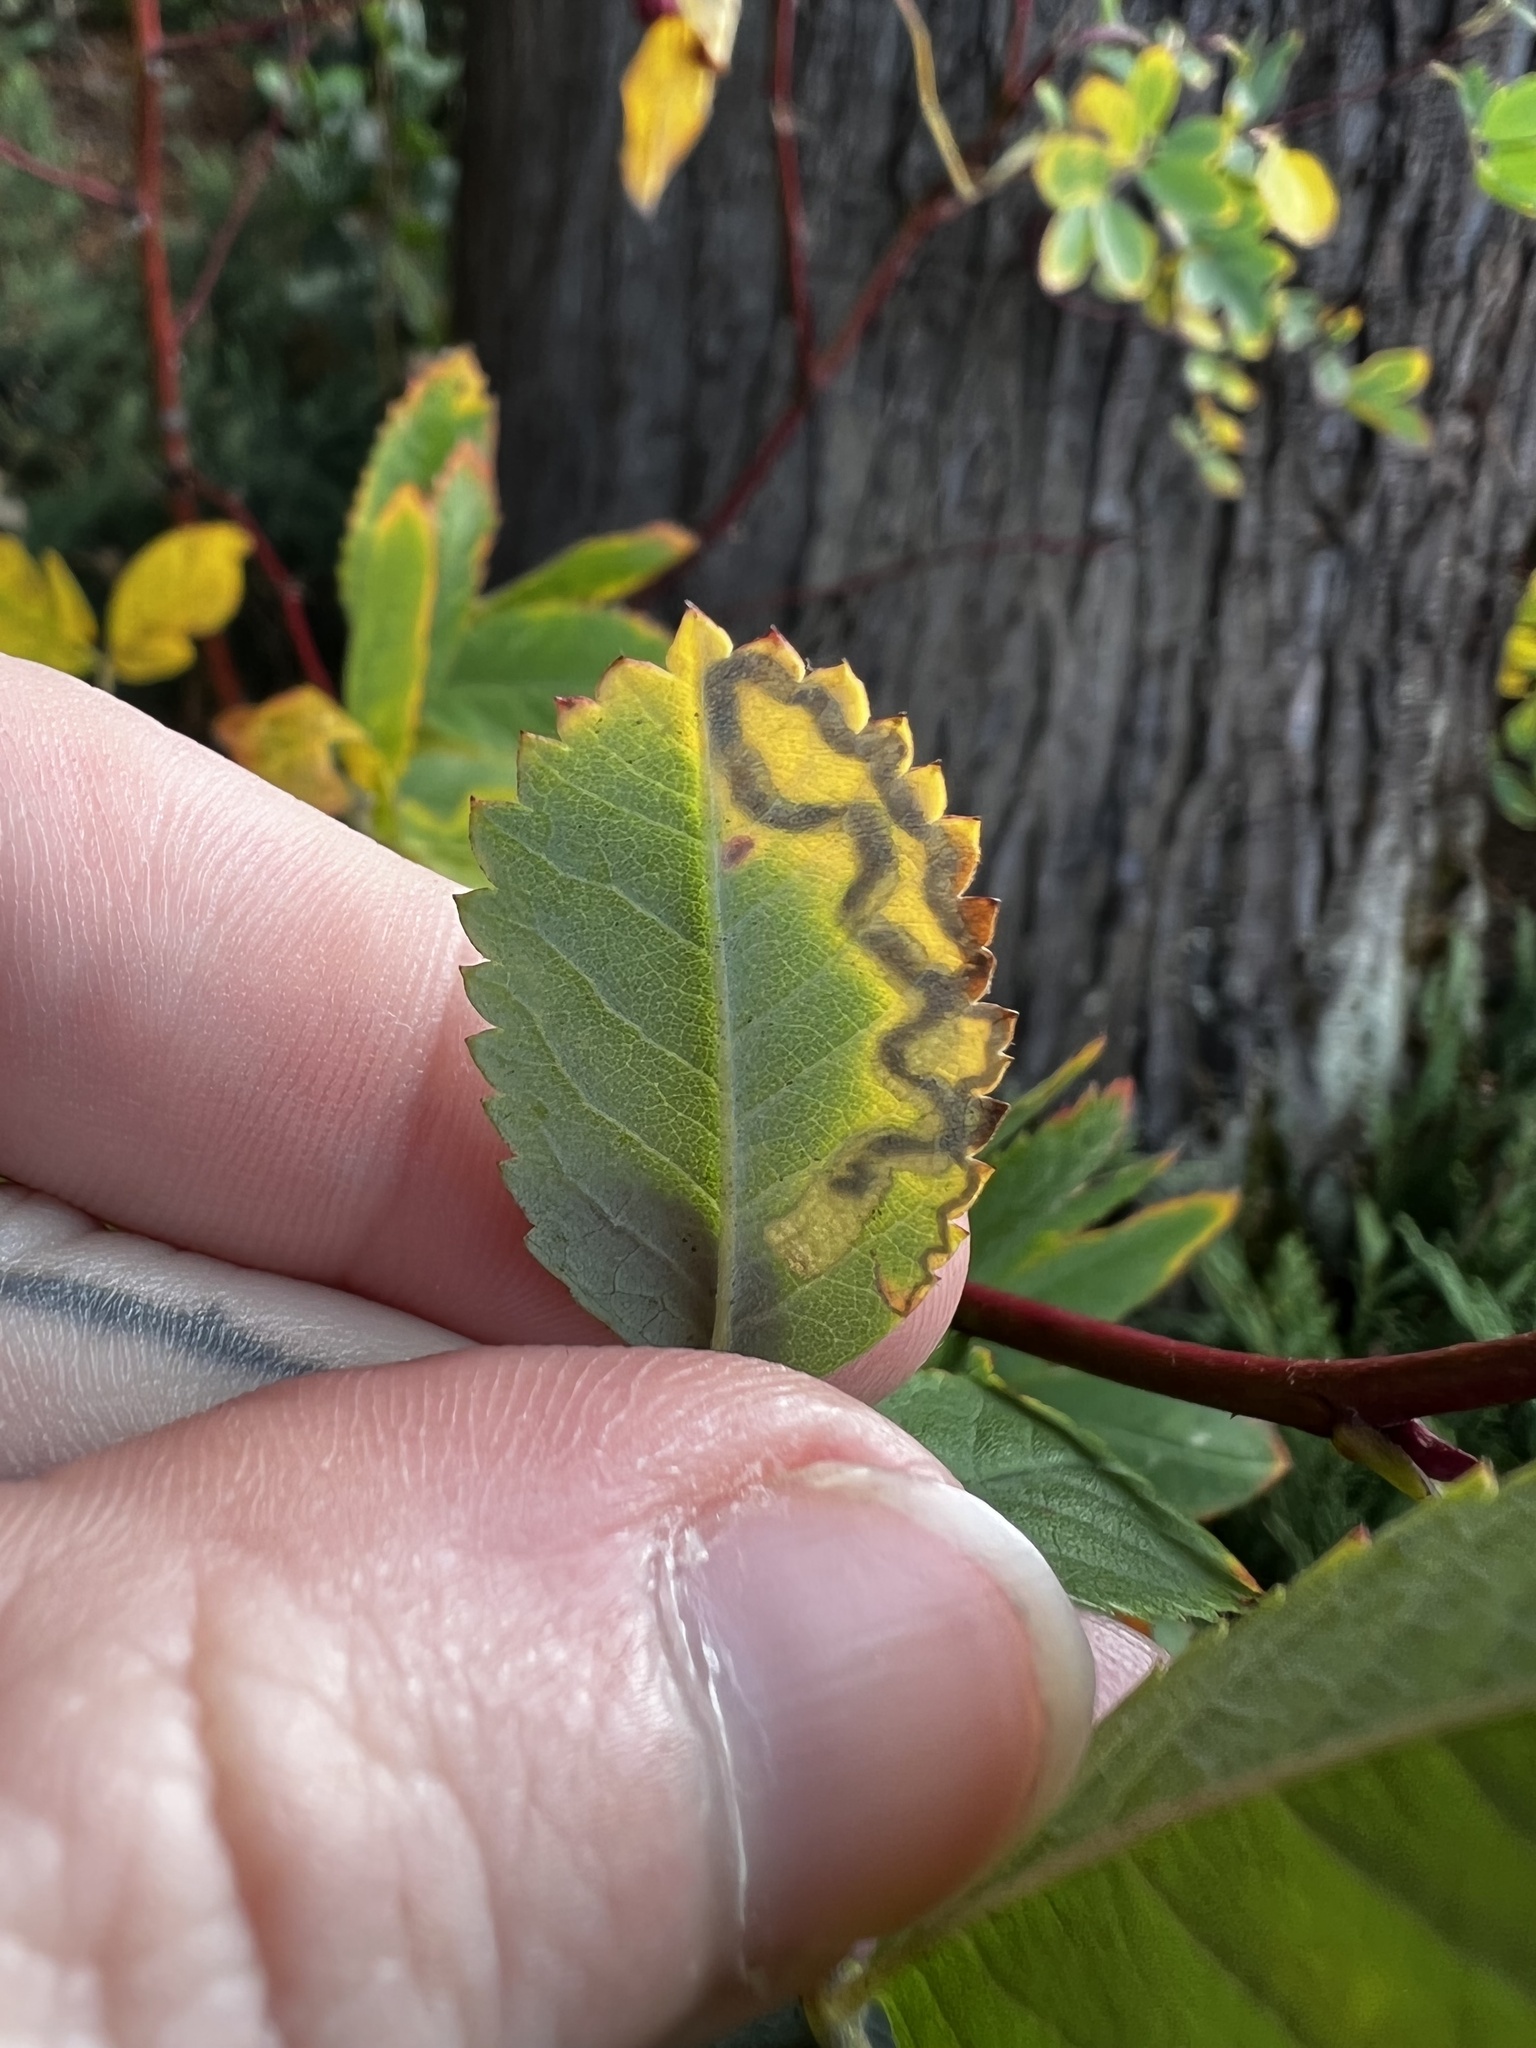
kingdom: Animalia
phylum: Arthropoda
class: Insecta
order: Lepidoptera
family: Nepticulidae
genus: Stigmella
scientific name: Stigmella anomalella
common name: Rose leaf-miner
